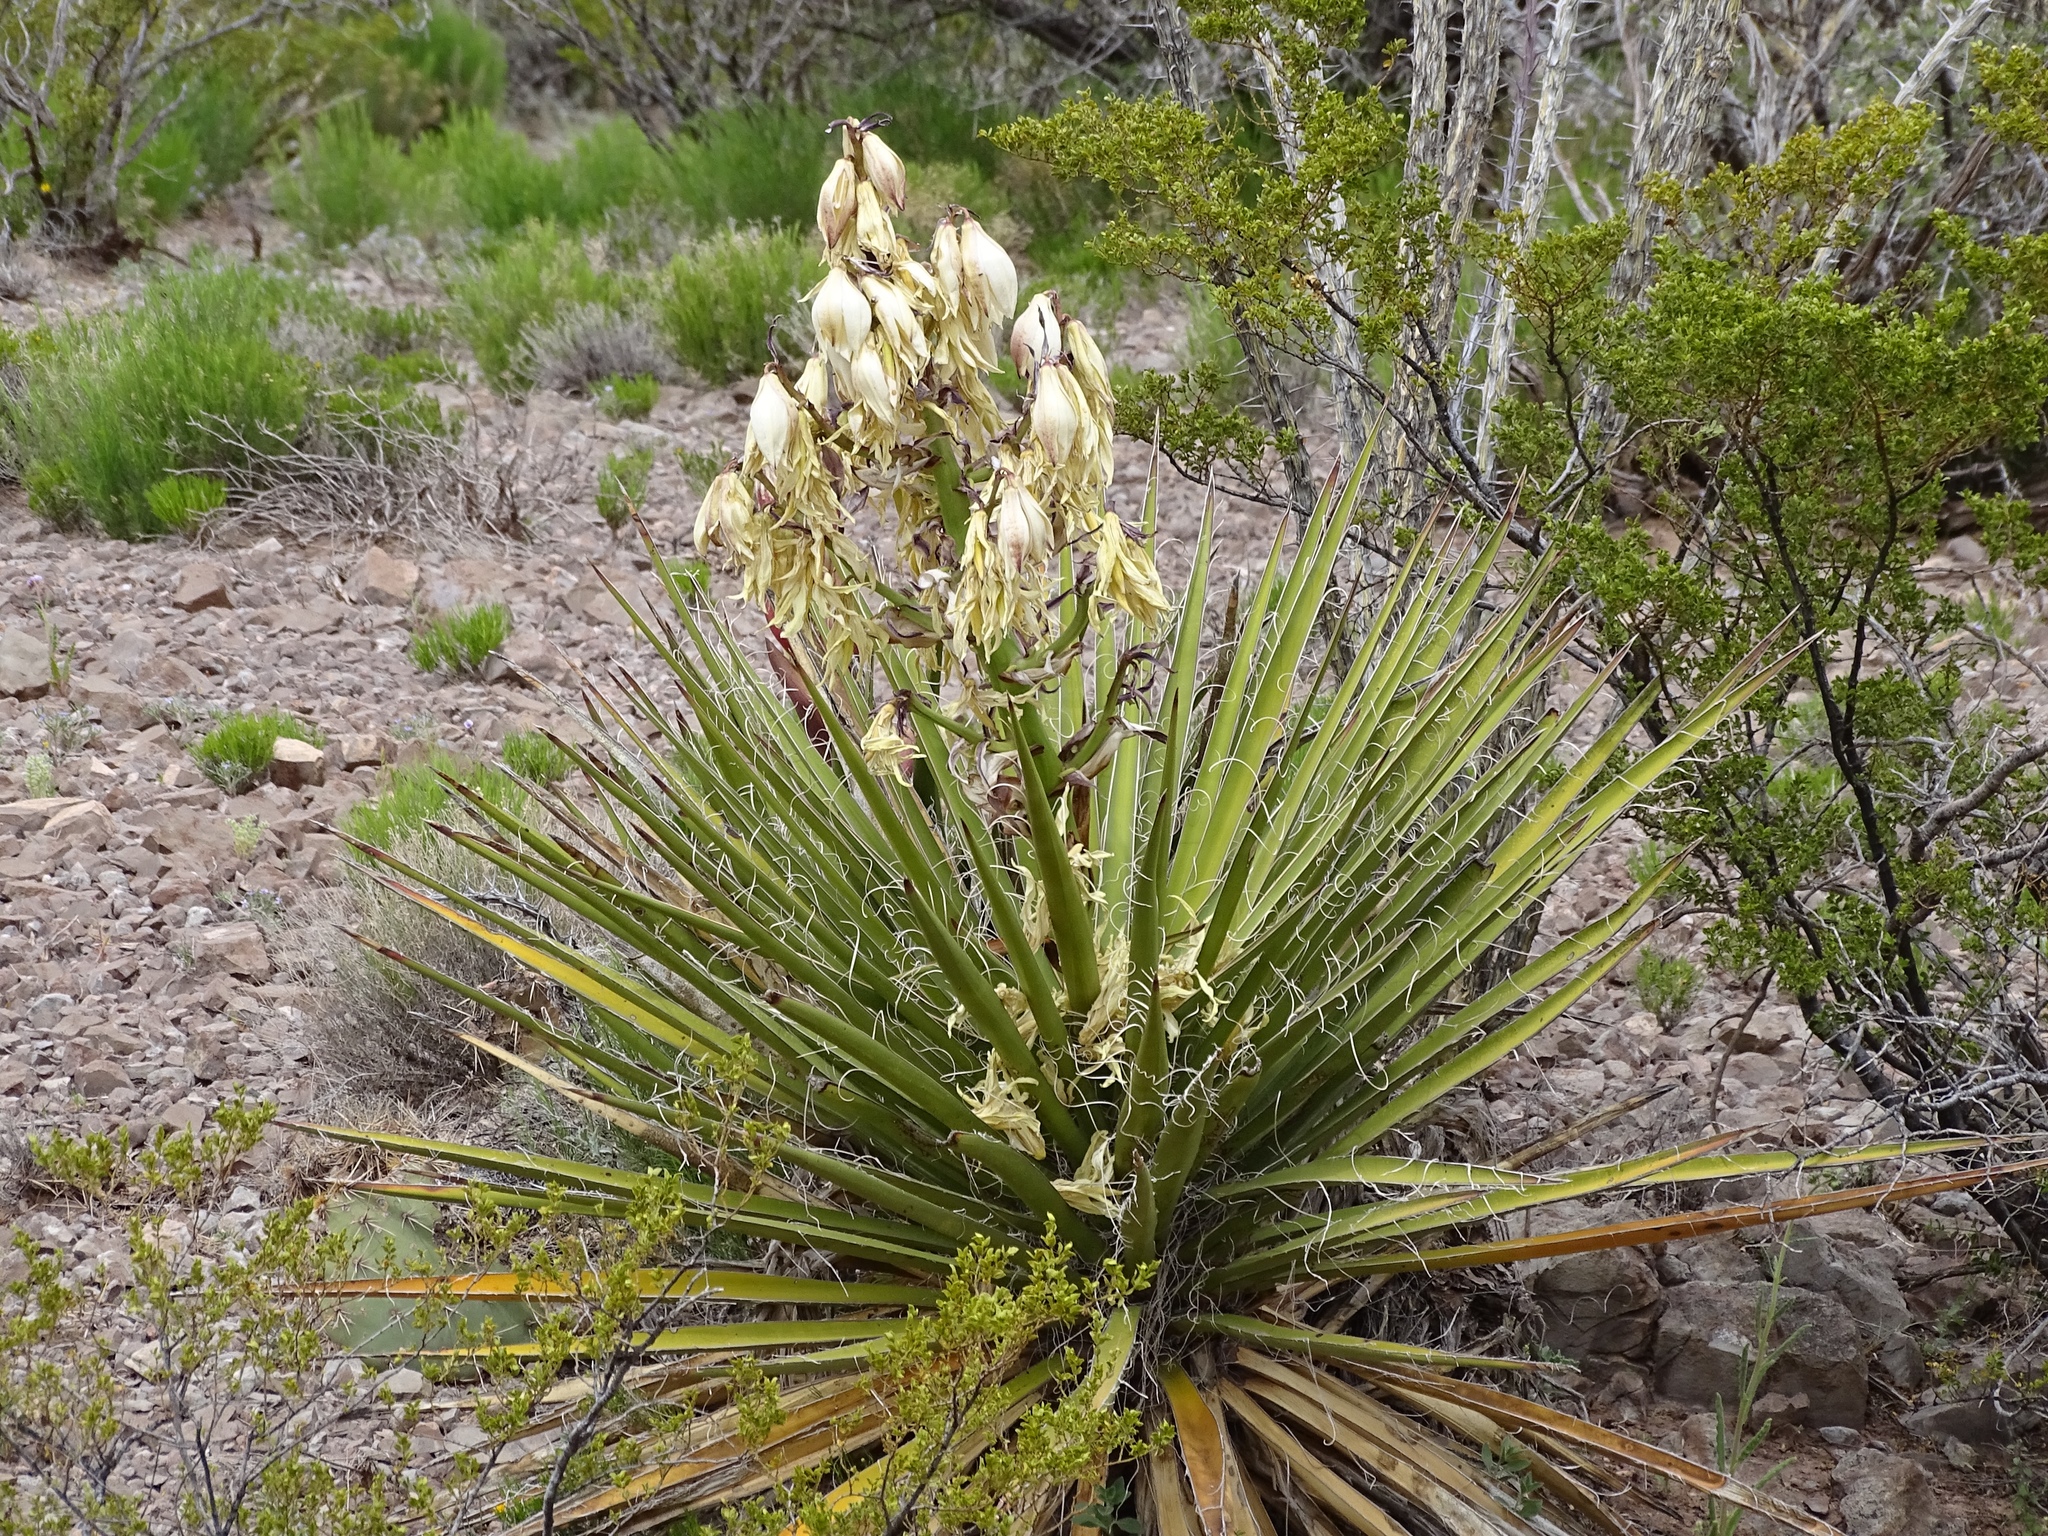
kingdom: Plantae
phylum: Tracheophyta
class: Liliopsida
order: Asparagales
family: Asparagaceae
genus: Yucca
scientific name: Yucca baccata
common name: Banana yucca
